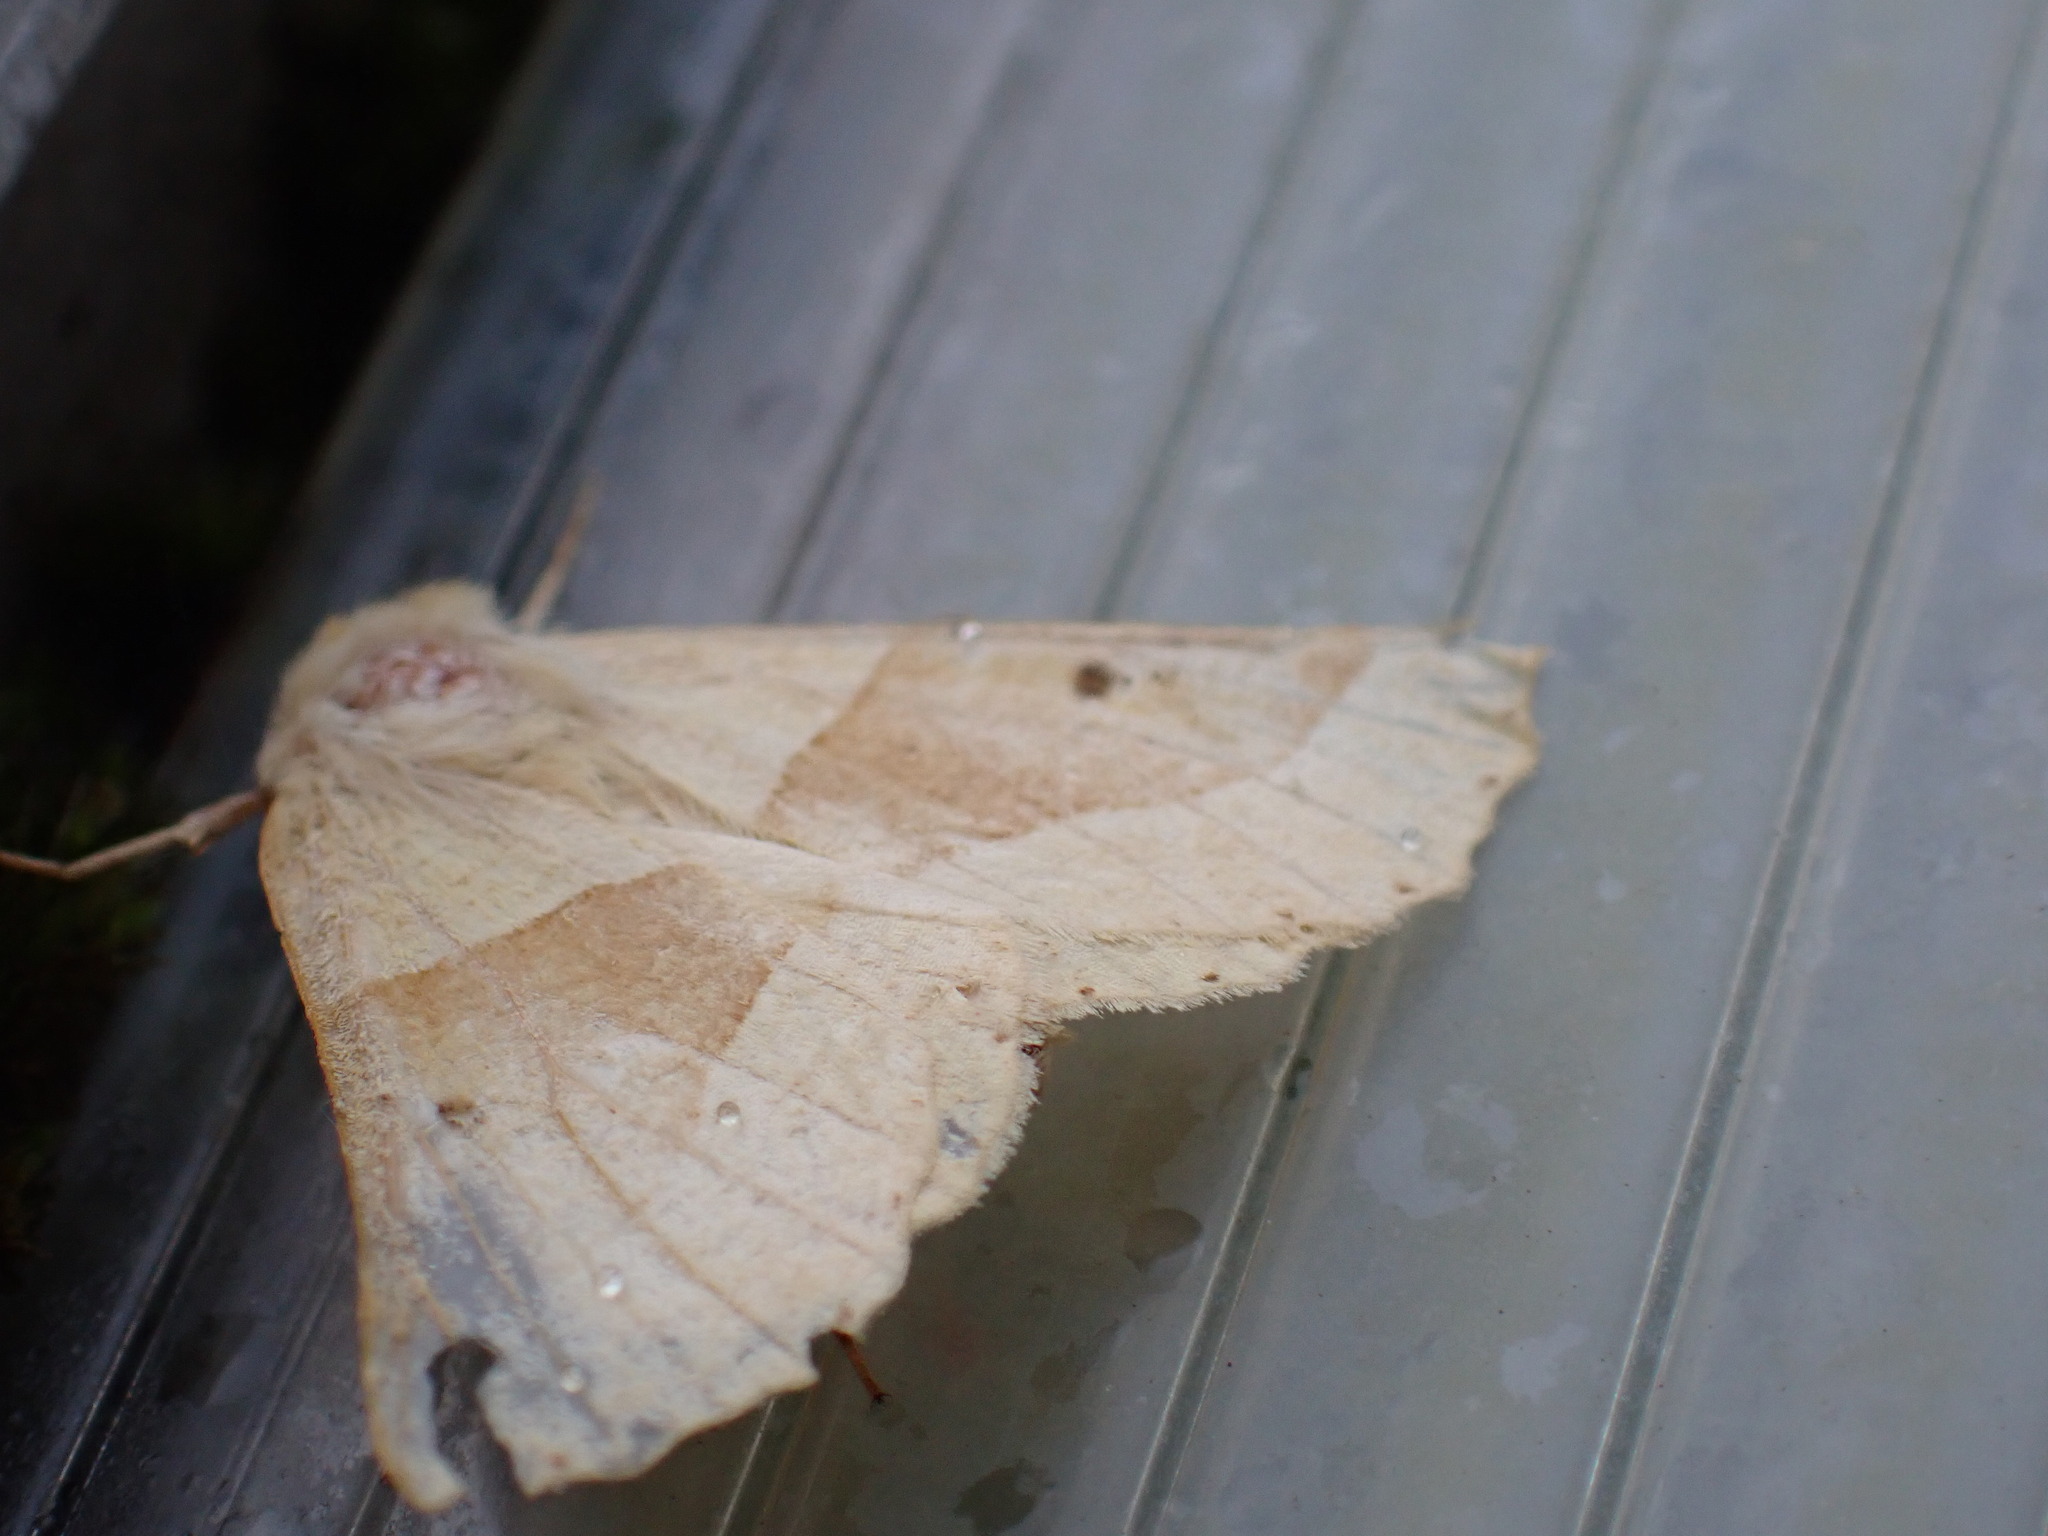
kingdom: Animalia
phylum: Arthropoda
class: Insecta
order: Lepidoptera
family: Geometridae
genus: Crocallis
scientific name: Crocallis elinguaria
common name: Scalloped oak
